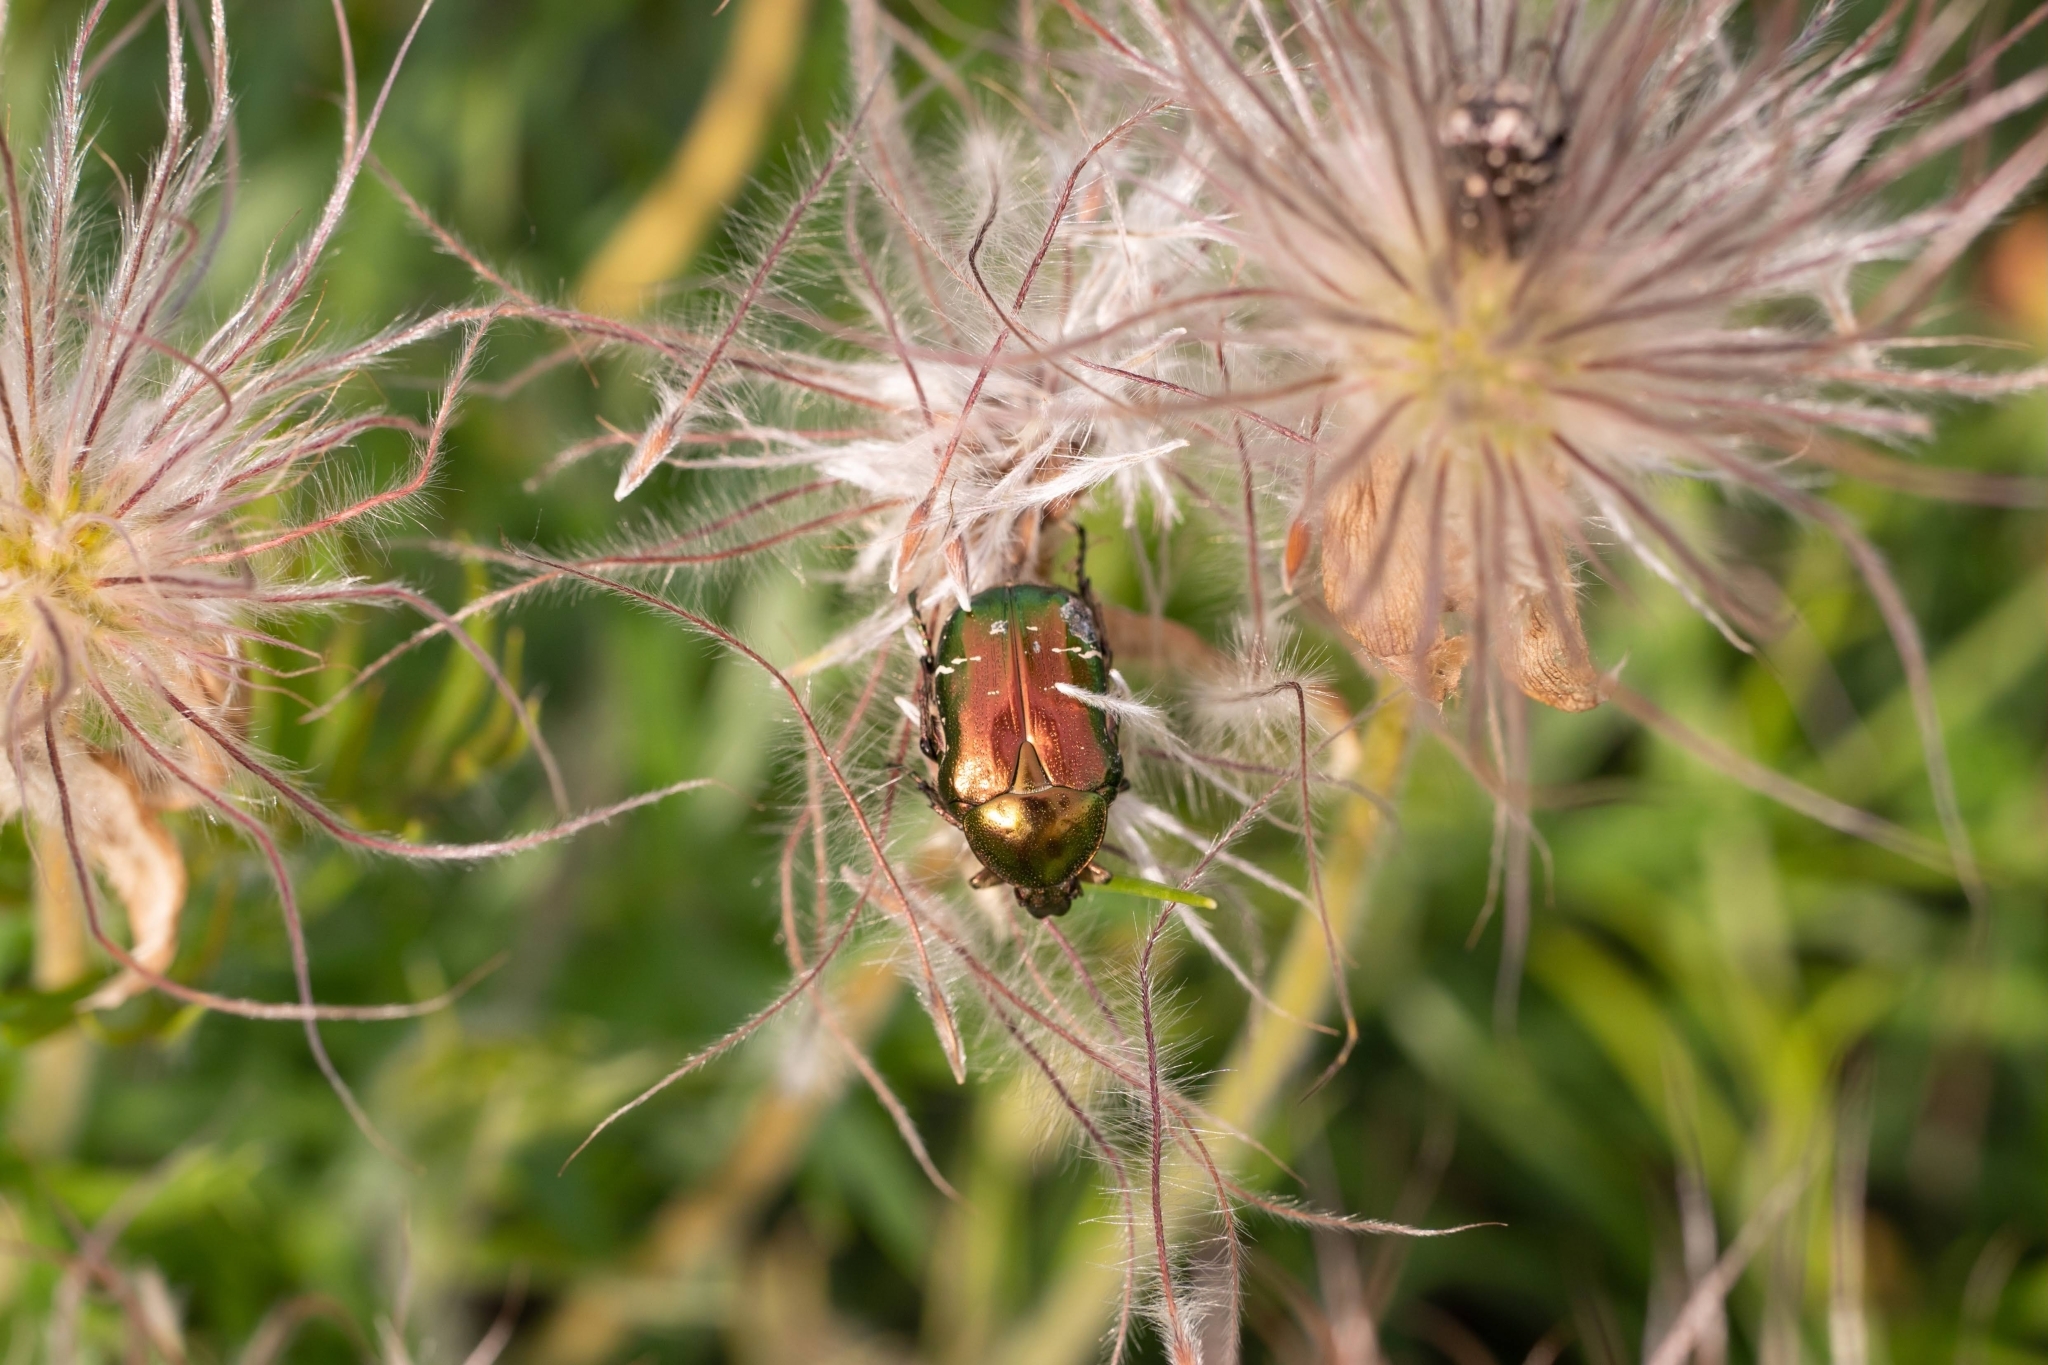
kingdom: Animalia
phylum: Arthropoda
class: Insecta
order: Coleoptera
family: Scarabaeidae
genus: Cetonia
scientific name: Cetonia aurata
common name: Rose chafer
